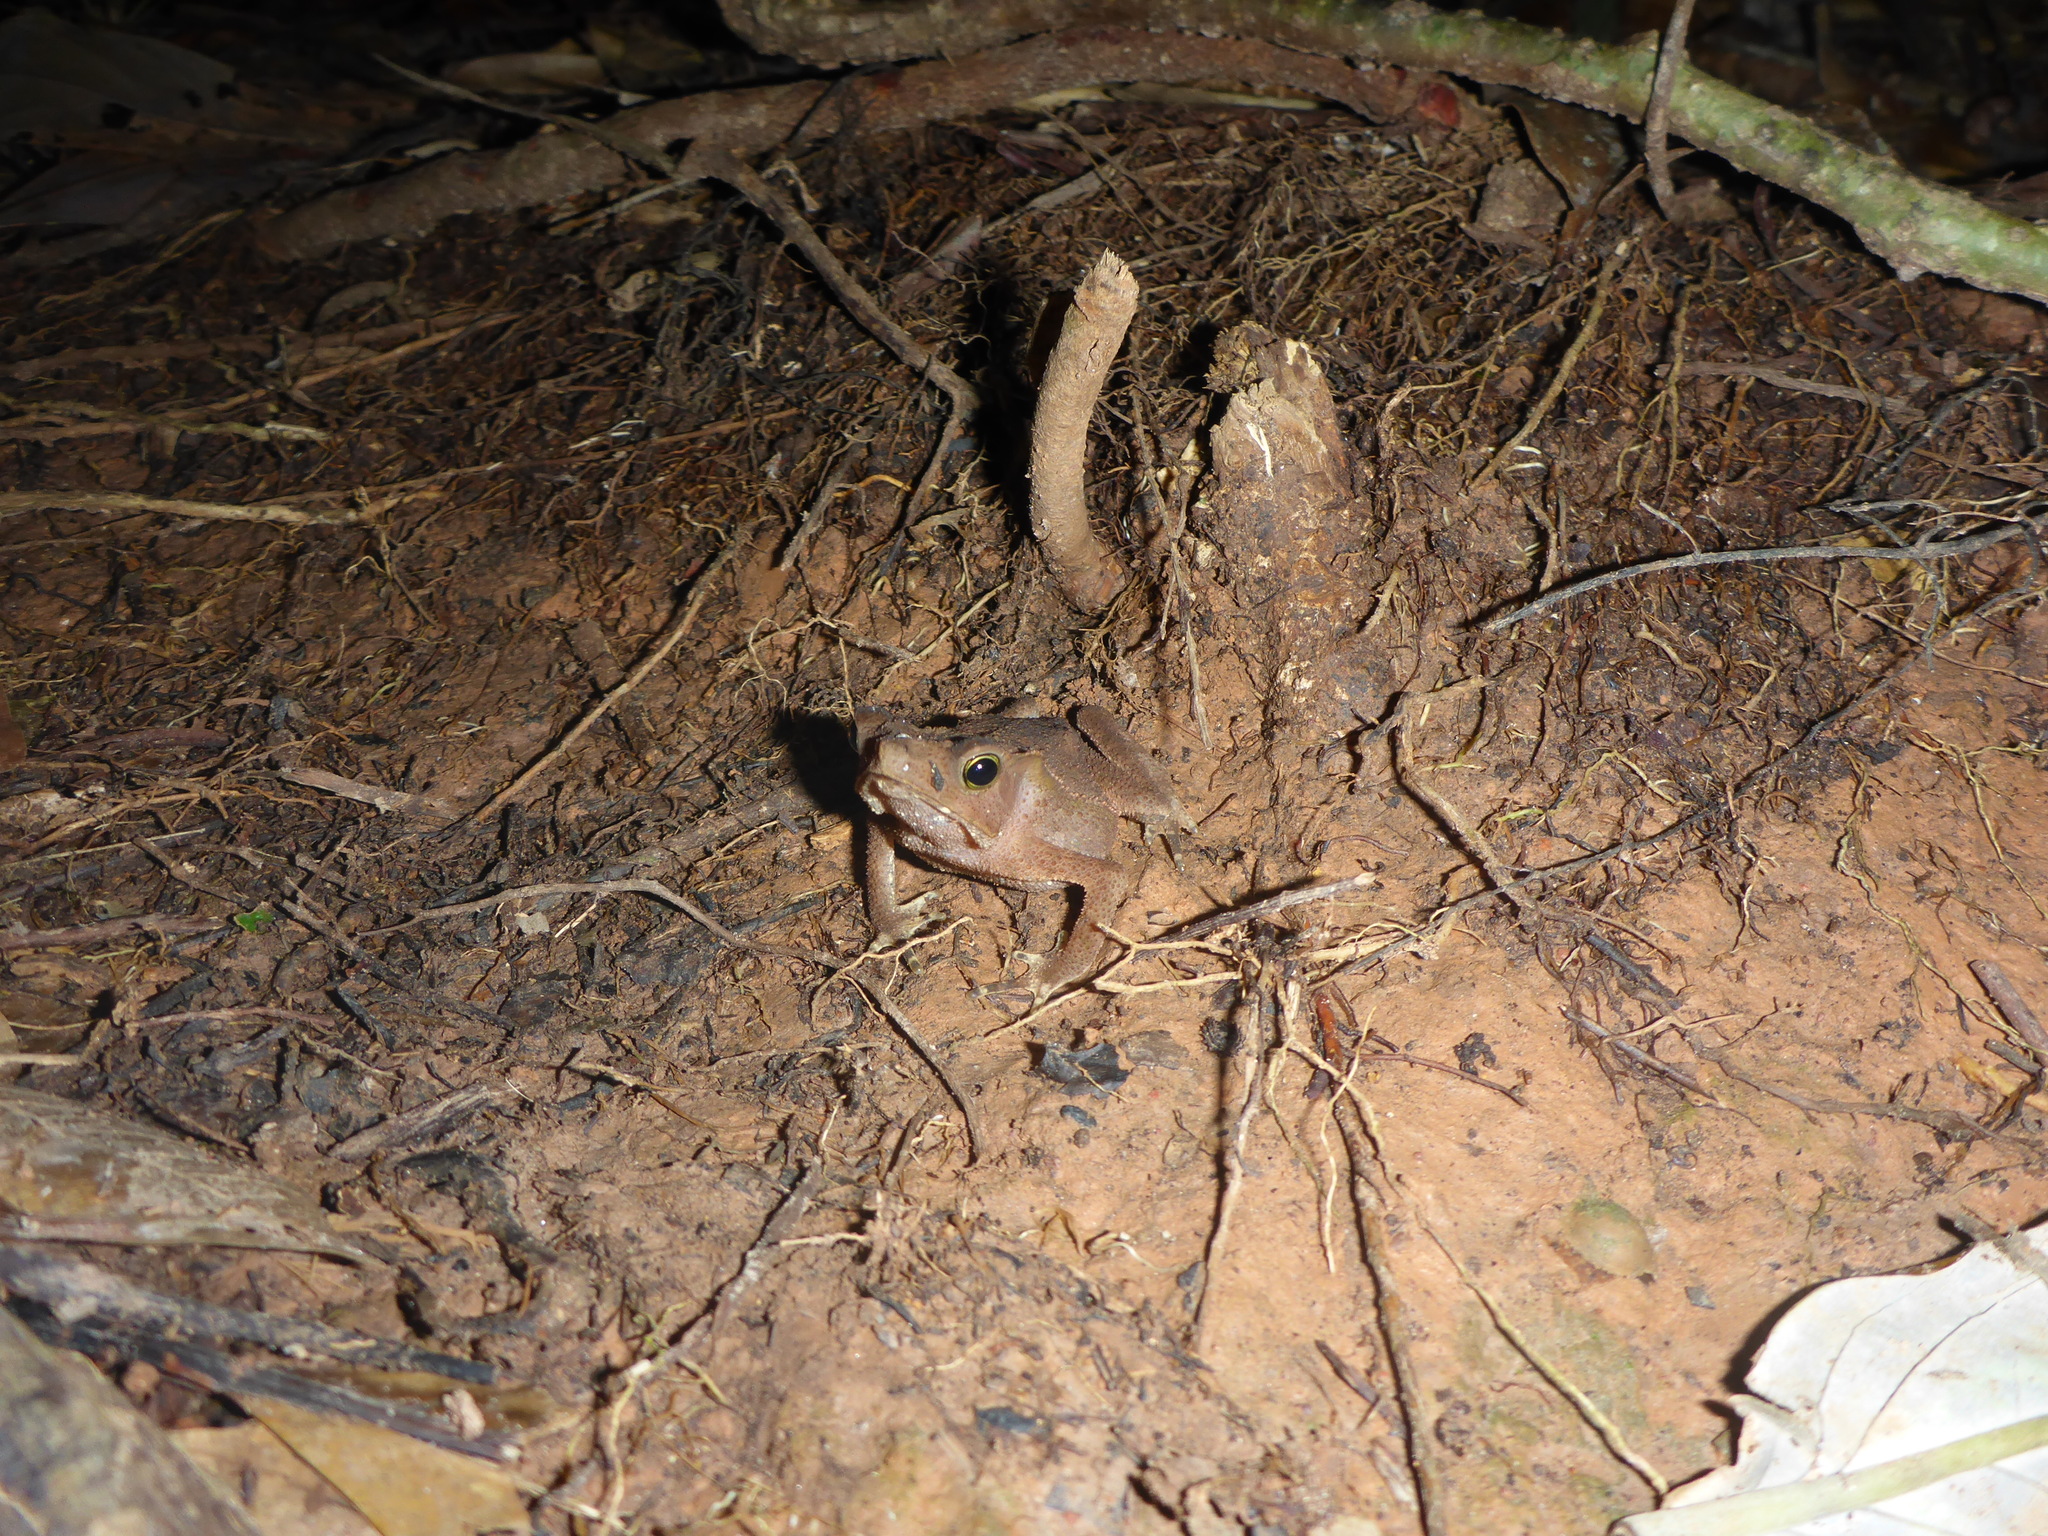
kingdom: Animalia
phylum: Chordata
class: Amphibia
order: Anura
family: Bufonidae
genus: Rhinella
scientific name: Rhinella margaritifera
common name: Mitred toad
